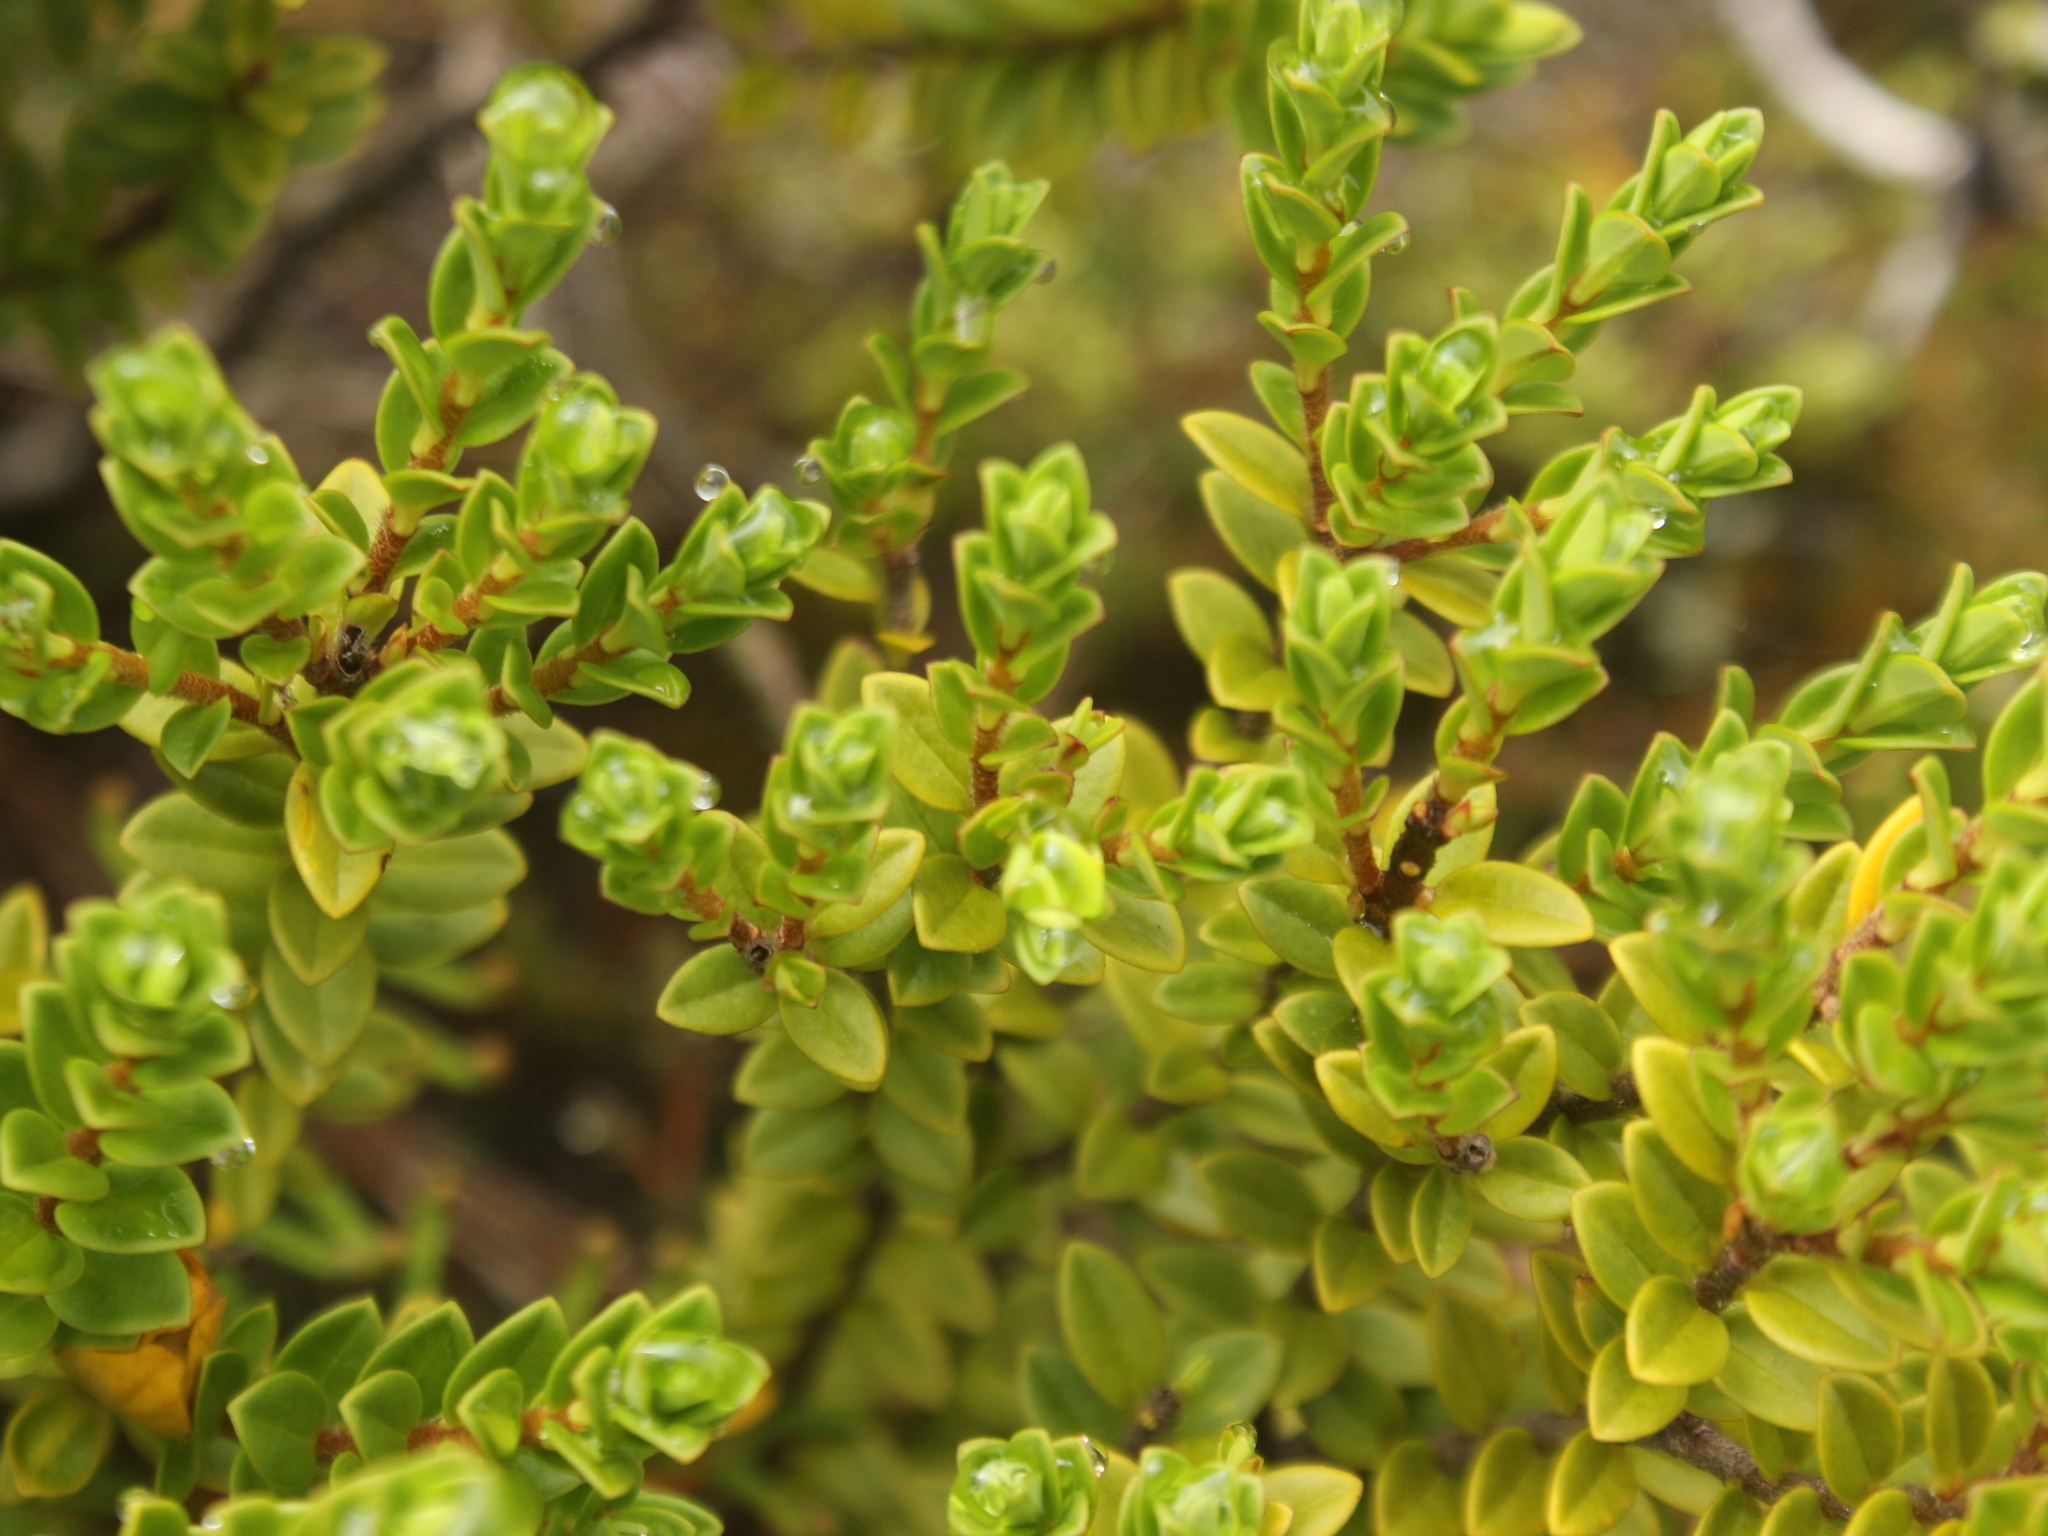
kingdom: Plantae
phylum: Tracheophyta
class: Magnoliopsida
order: Malvales
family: Thymelaeaceae
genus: Pimelea
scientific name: Pimelea buxifolia
